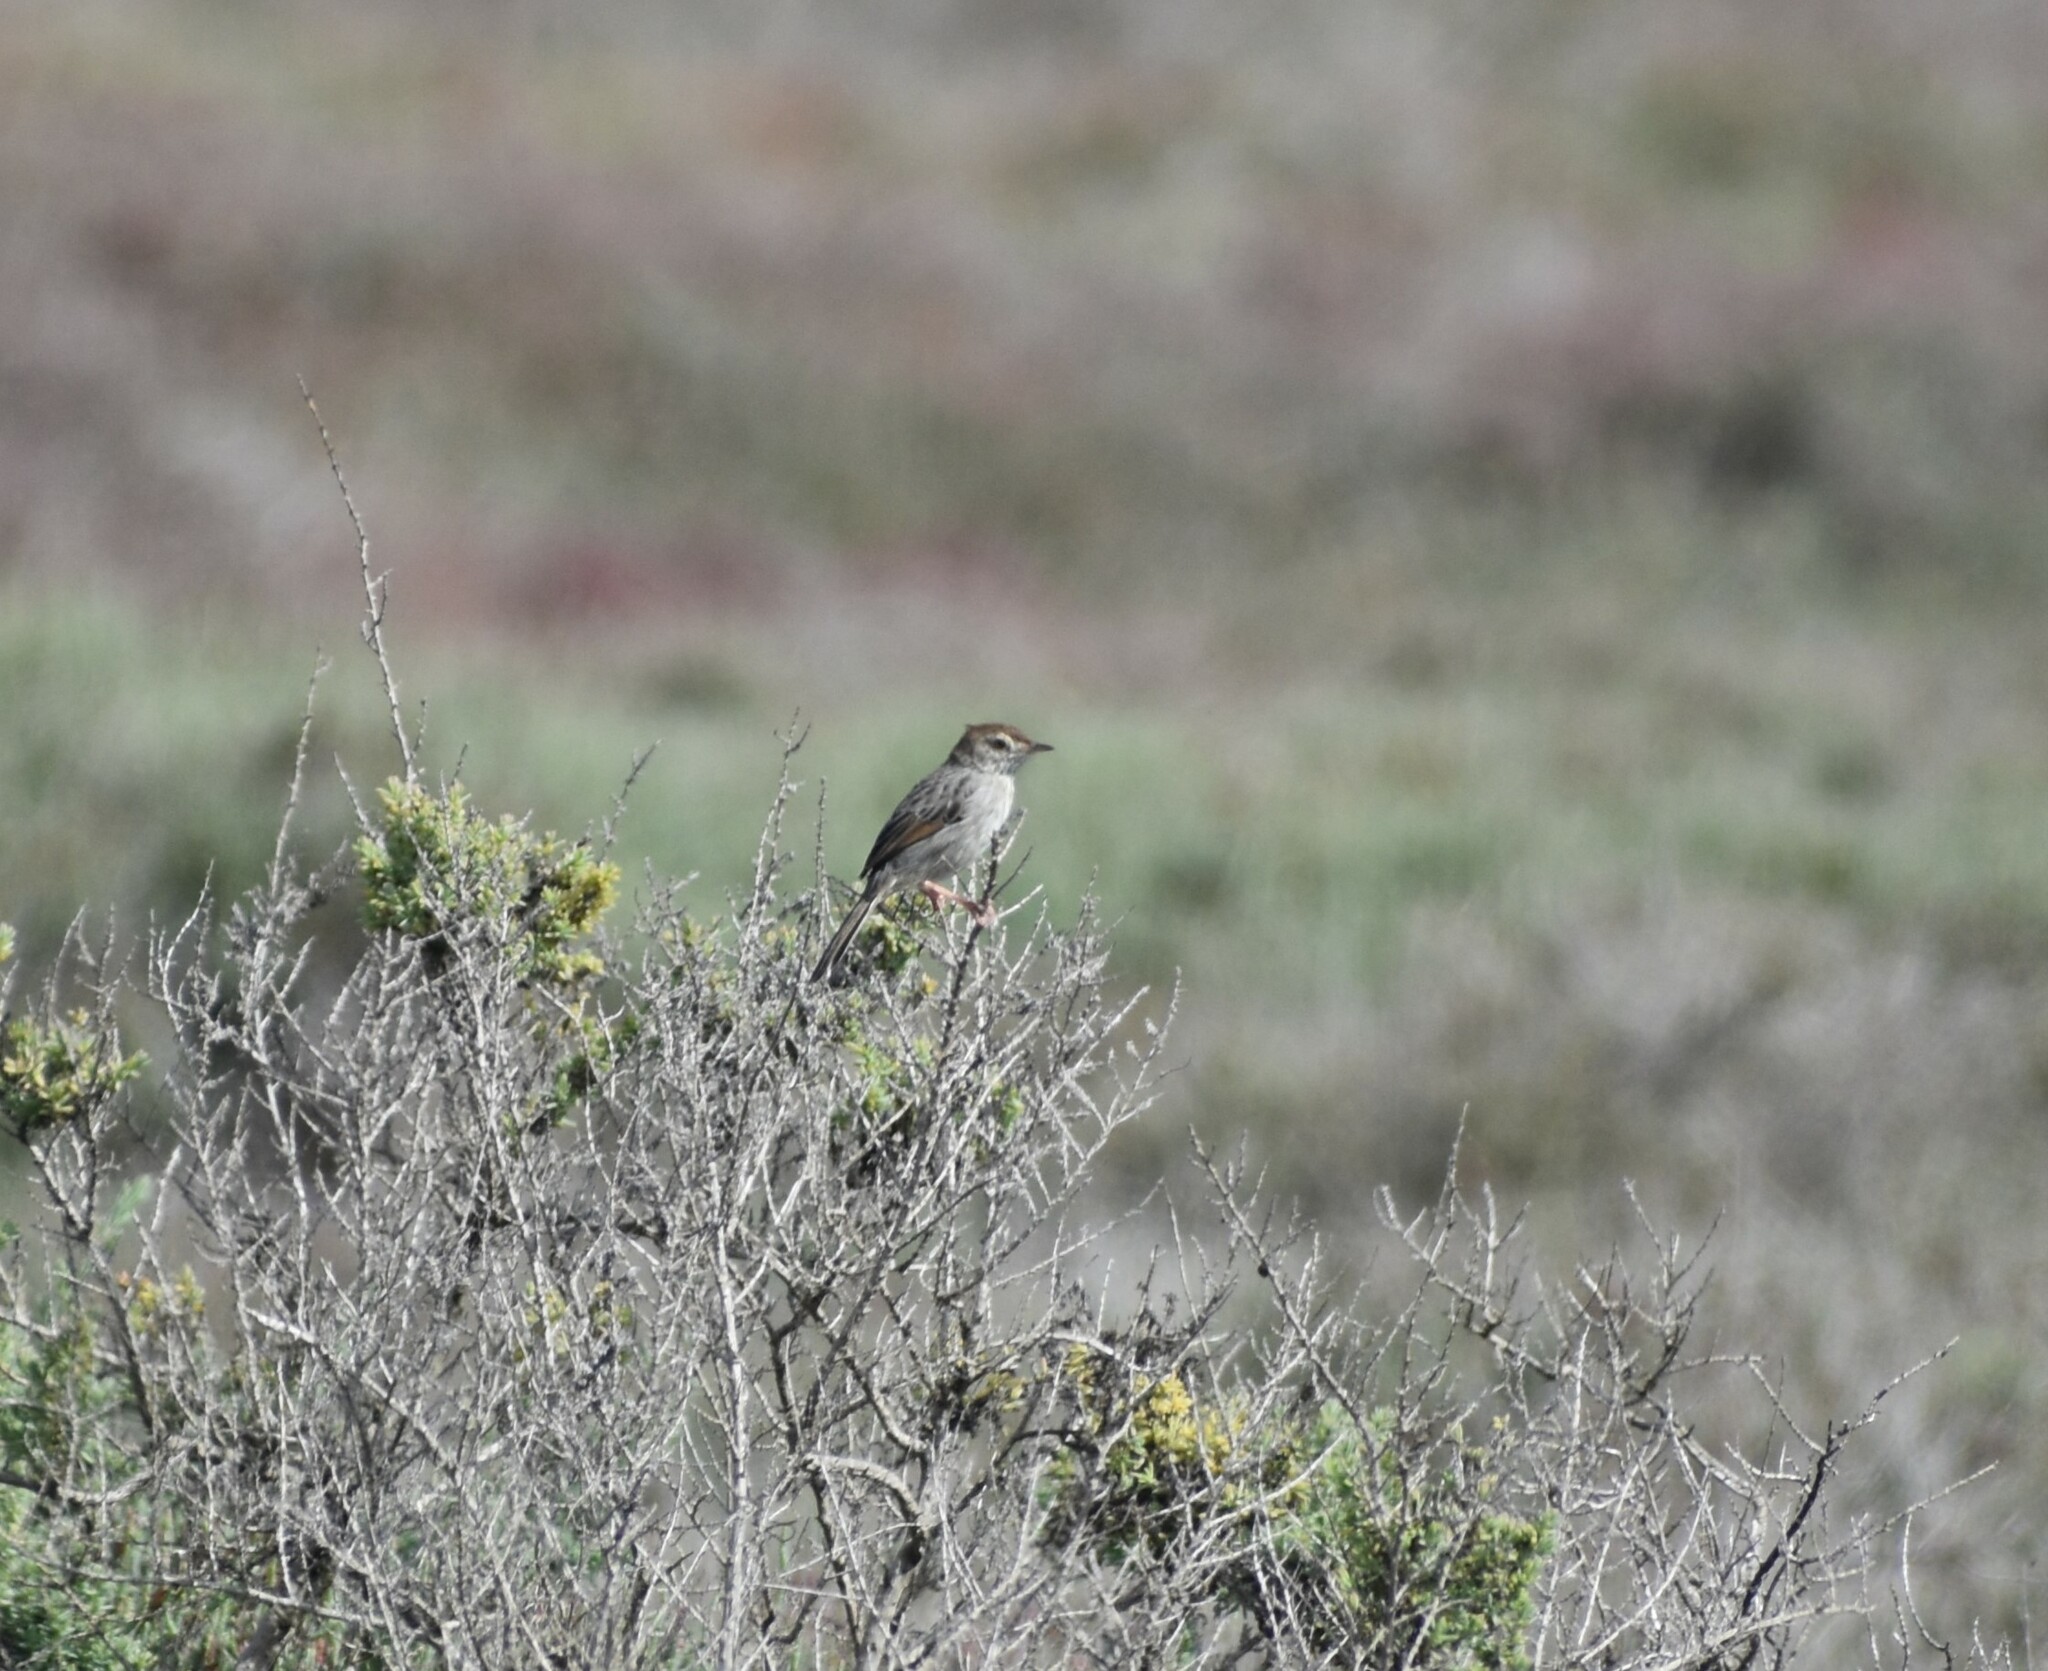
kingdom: Animalia
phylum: Chordata
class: Aves
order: Passeriformes
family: Cisticolidae
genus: Cisticola
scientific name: Cisticola subruficapilla
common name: Grey-backed cisticola
